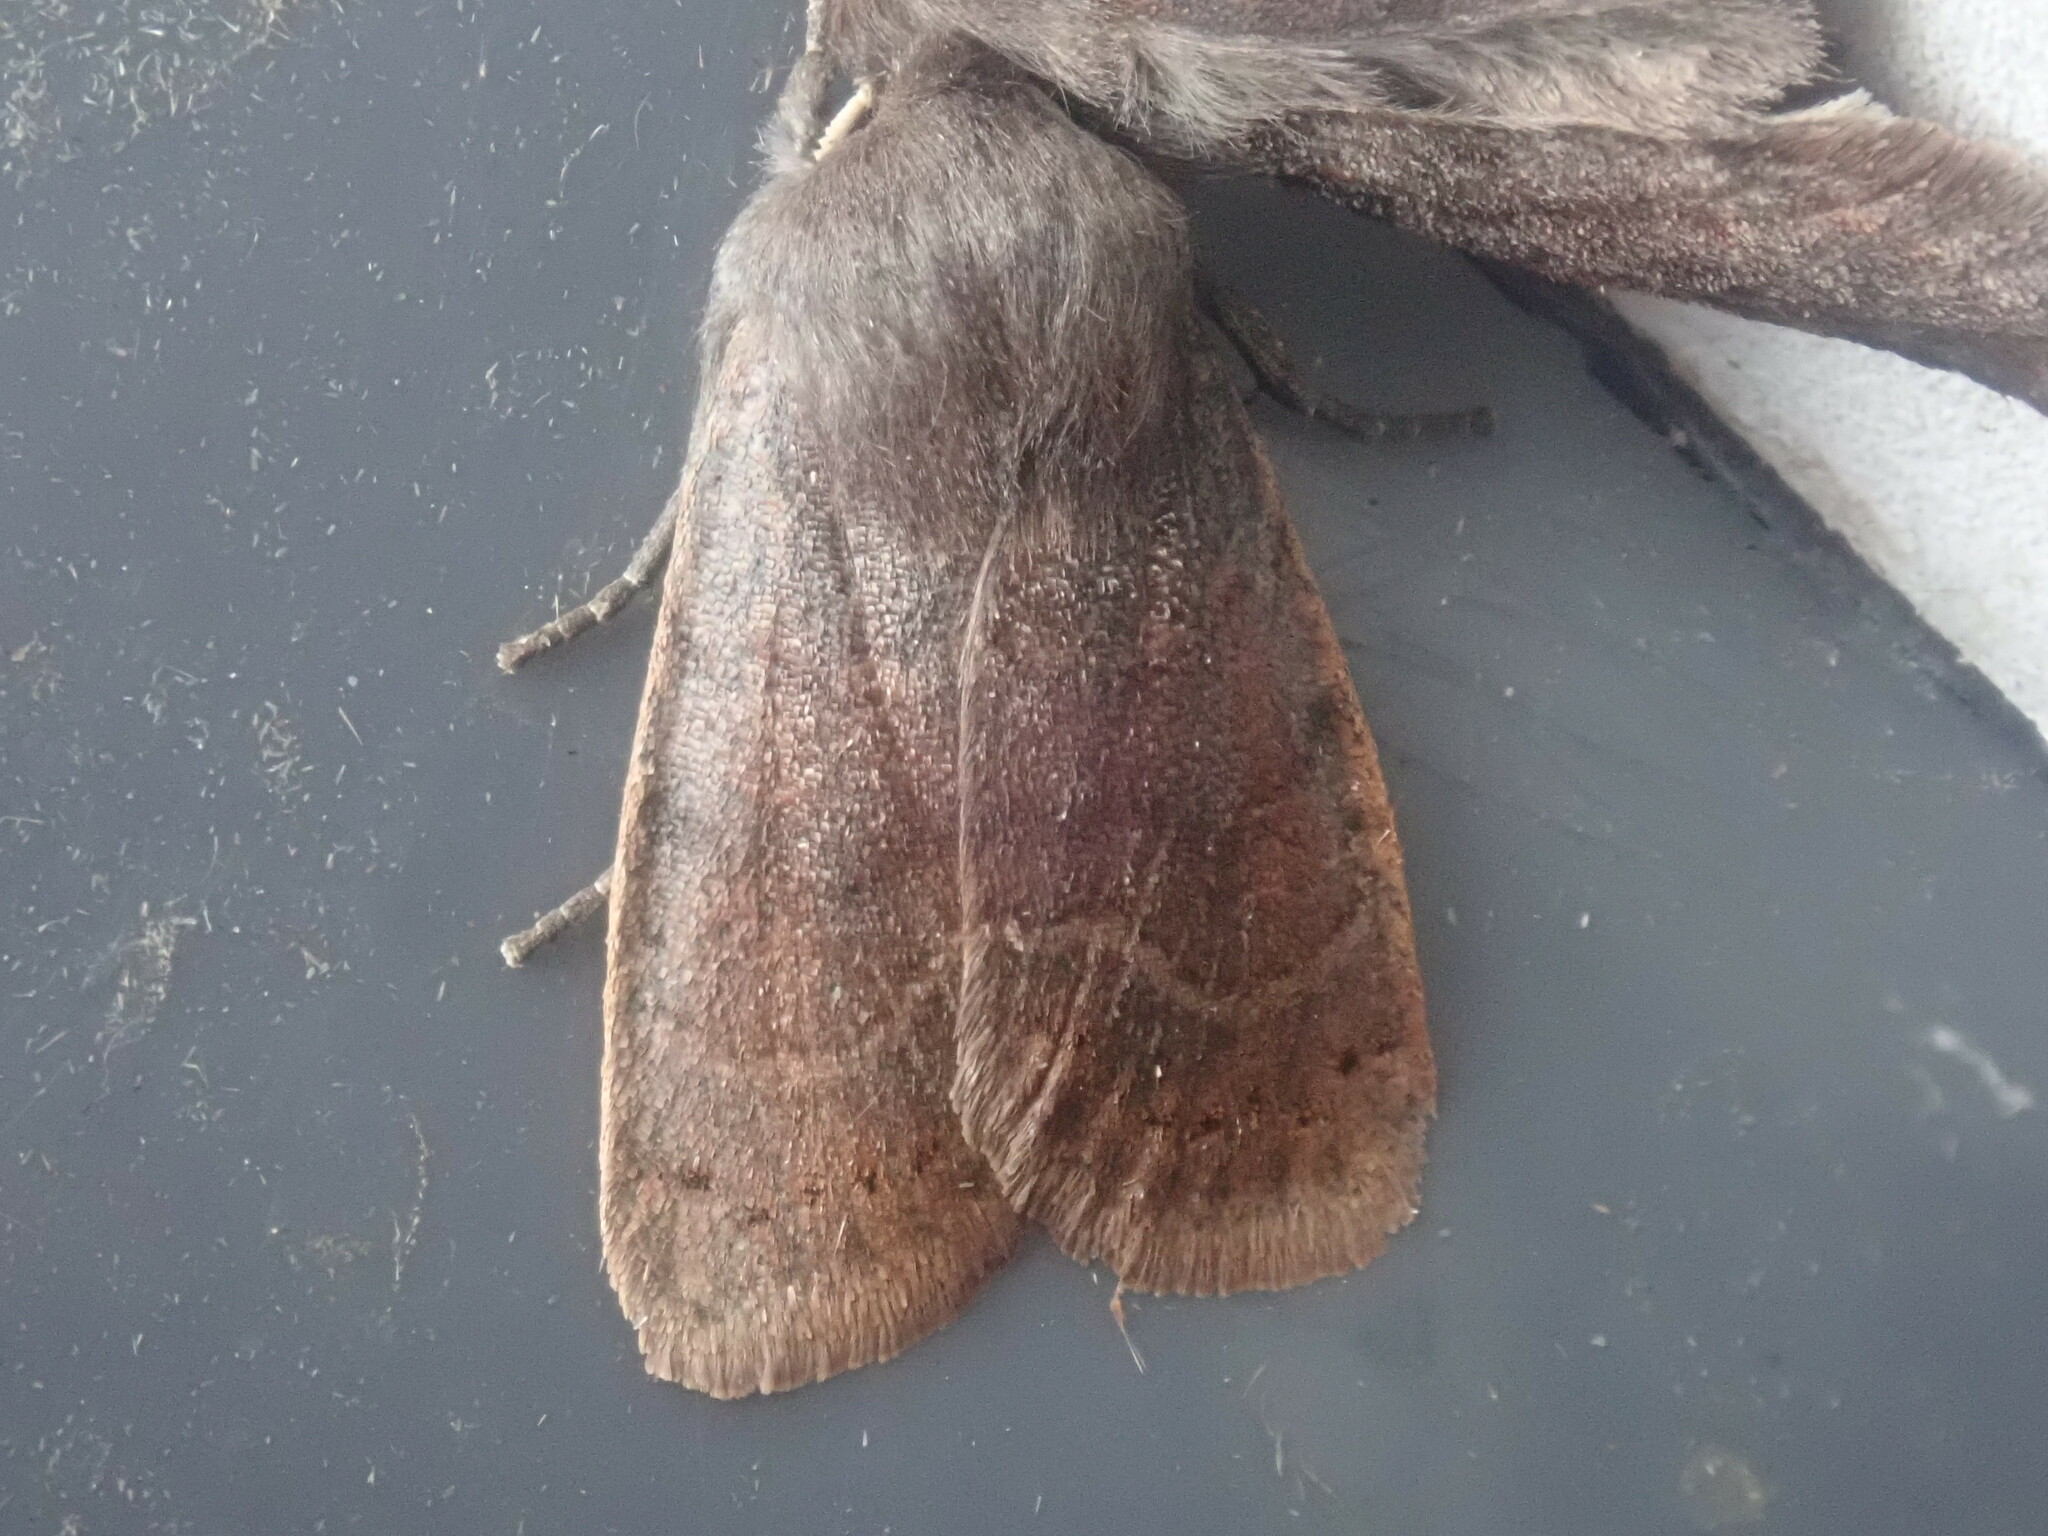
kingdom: Animalia
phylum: Arthropoda
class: Insecta
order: Lepidoptera
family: Noctuidae
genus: Homoglaea
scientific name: Homoglaea hircina
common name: Goat sallow
